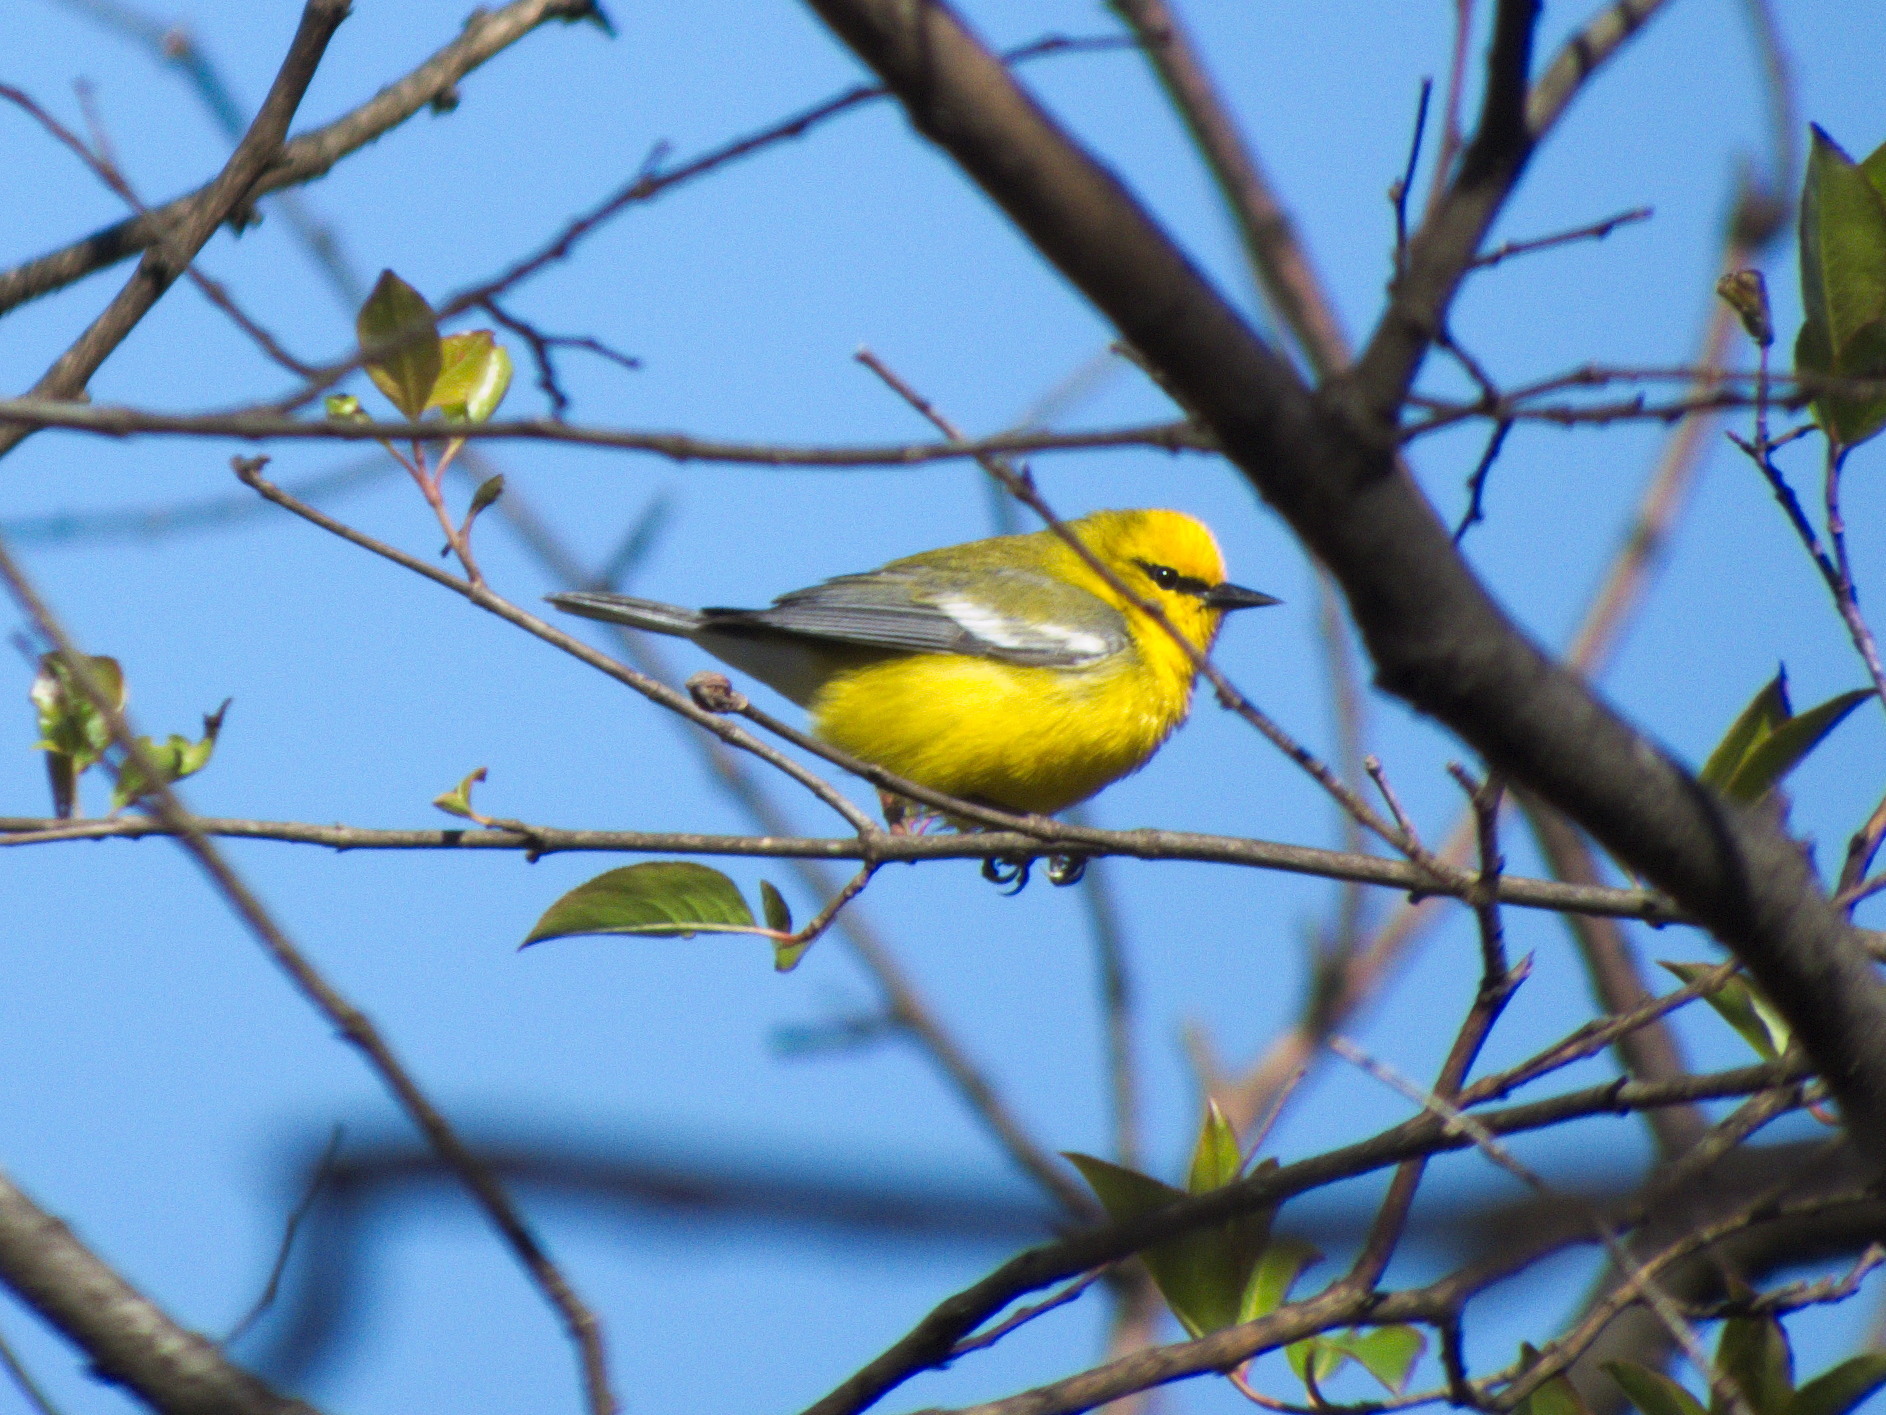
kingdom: Animalia
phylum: Chordata
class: Aves
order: Passeriformes
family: Parulidae
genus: Vermivora
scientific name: Vermivora cyanoptera
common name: Blue-winged warbler
